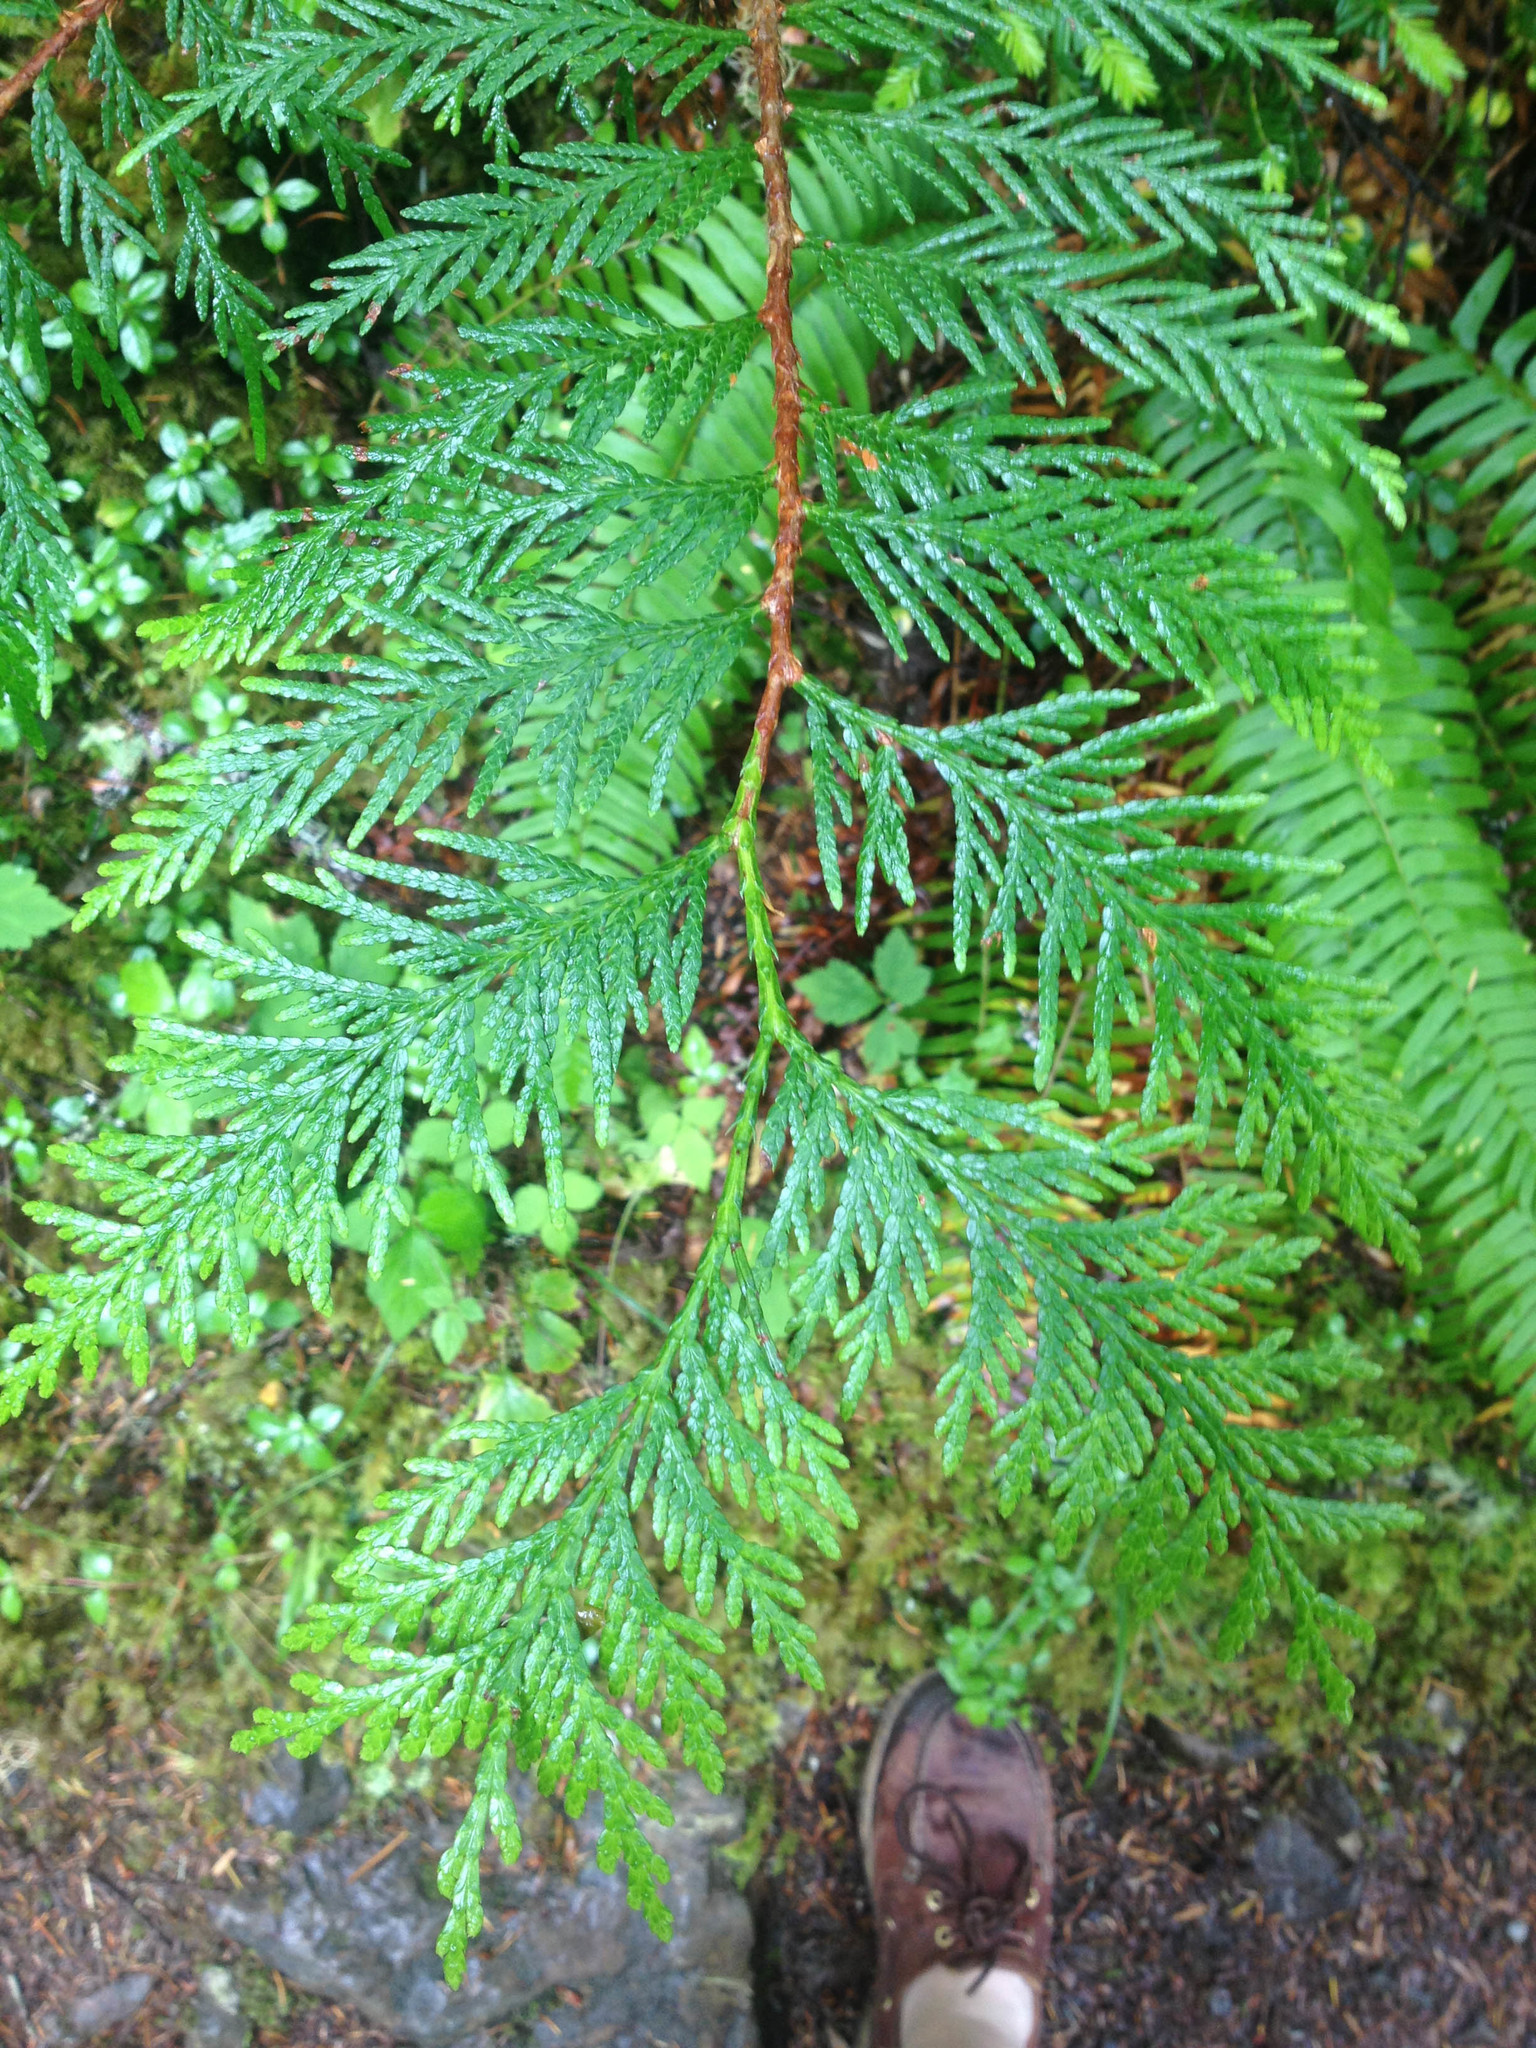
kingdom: Plantae
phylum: Tracheophyta
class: Pinopsida
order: Pinales
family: Cupressaceae
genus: Thuja
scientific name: Thuja plicata
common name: Western red-cedar
